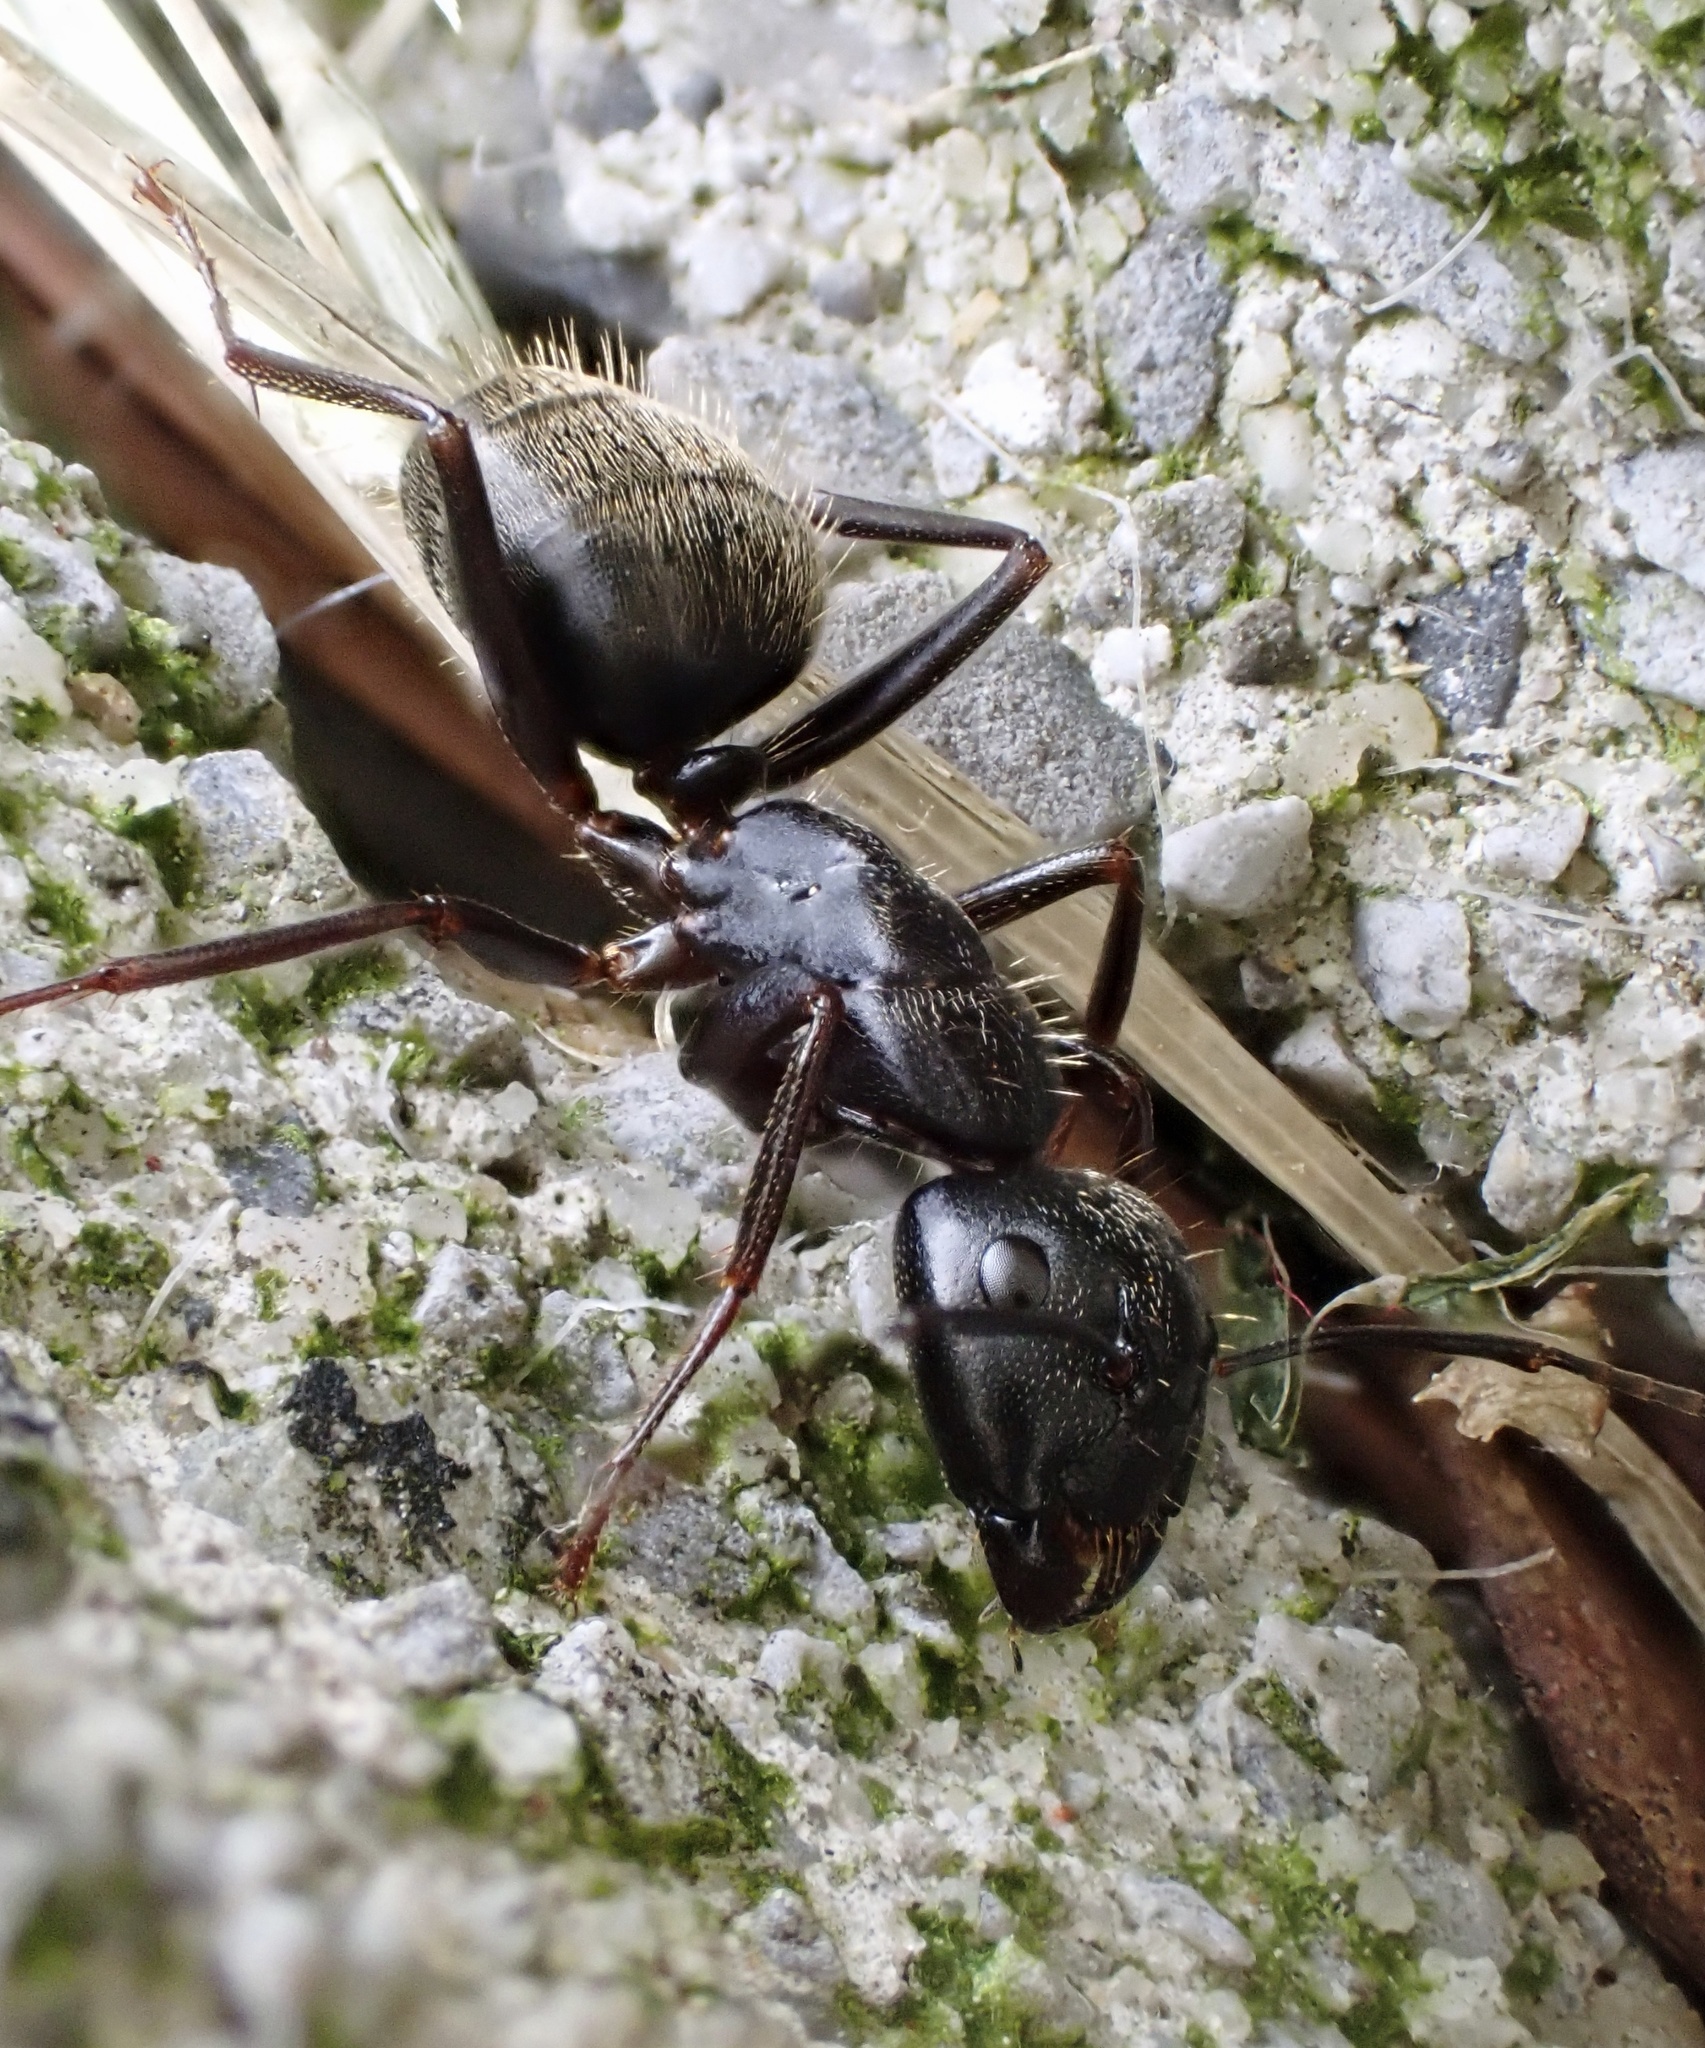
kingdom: Animalia
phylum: Arthropoda
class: Insecta
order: Hymenoptera
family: Formicidae
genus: Camponotus
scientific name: Camponotus pennsylvanicus
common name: Black carpenter ant
